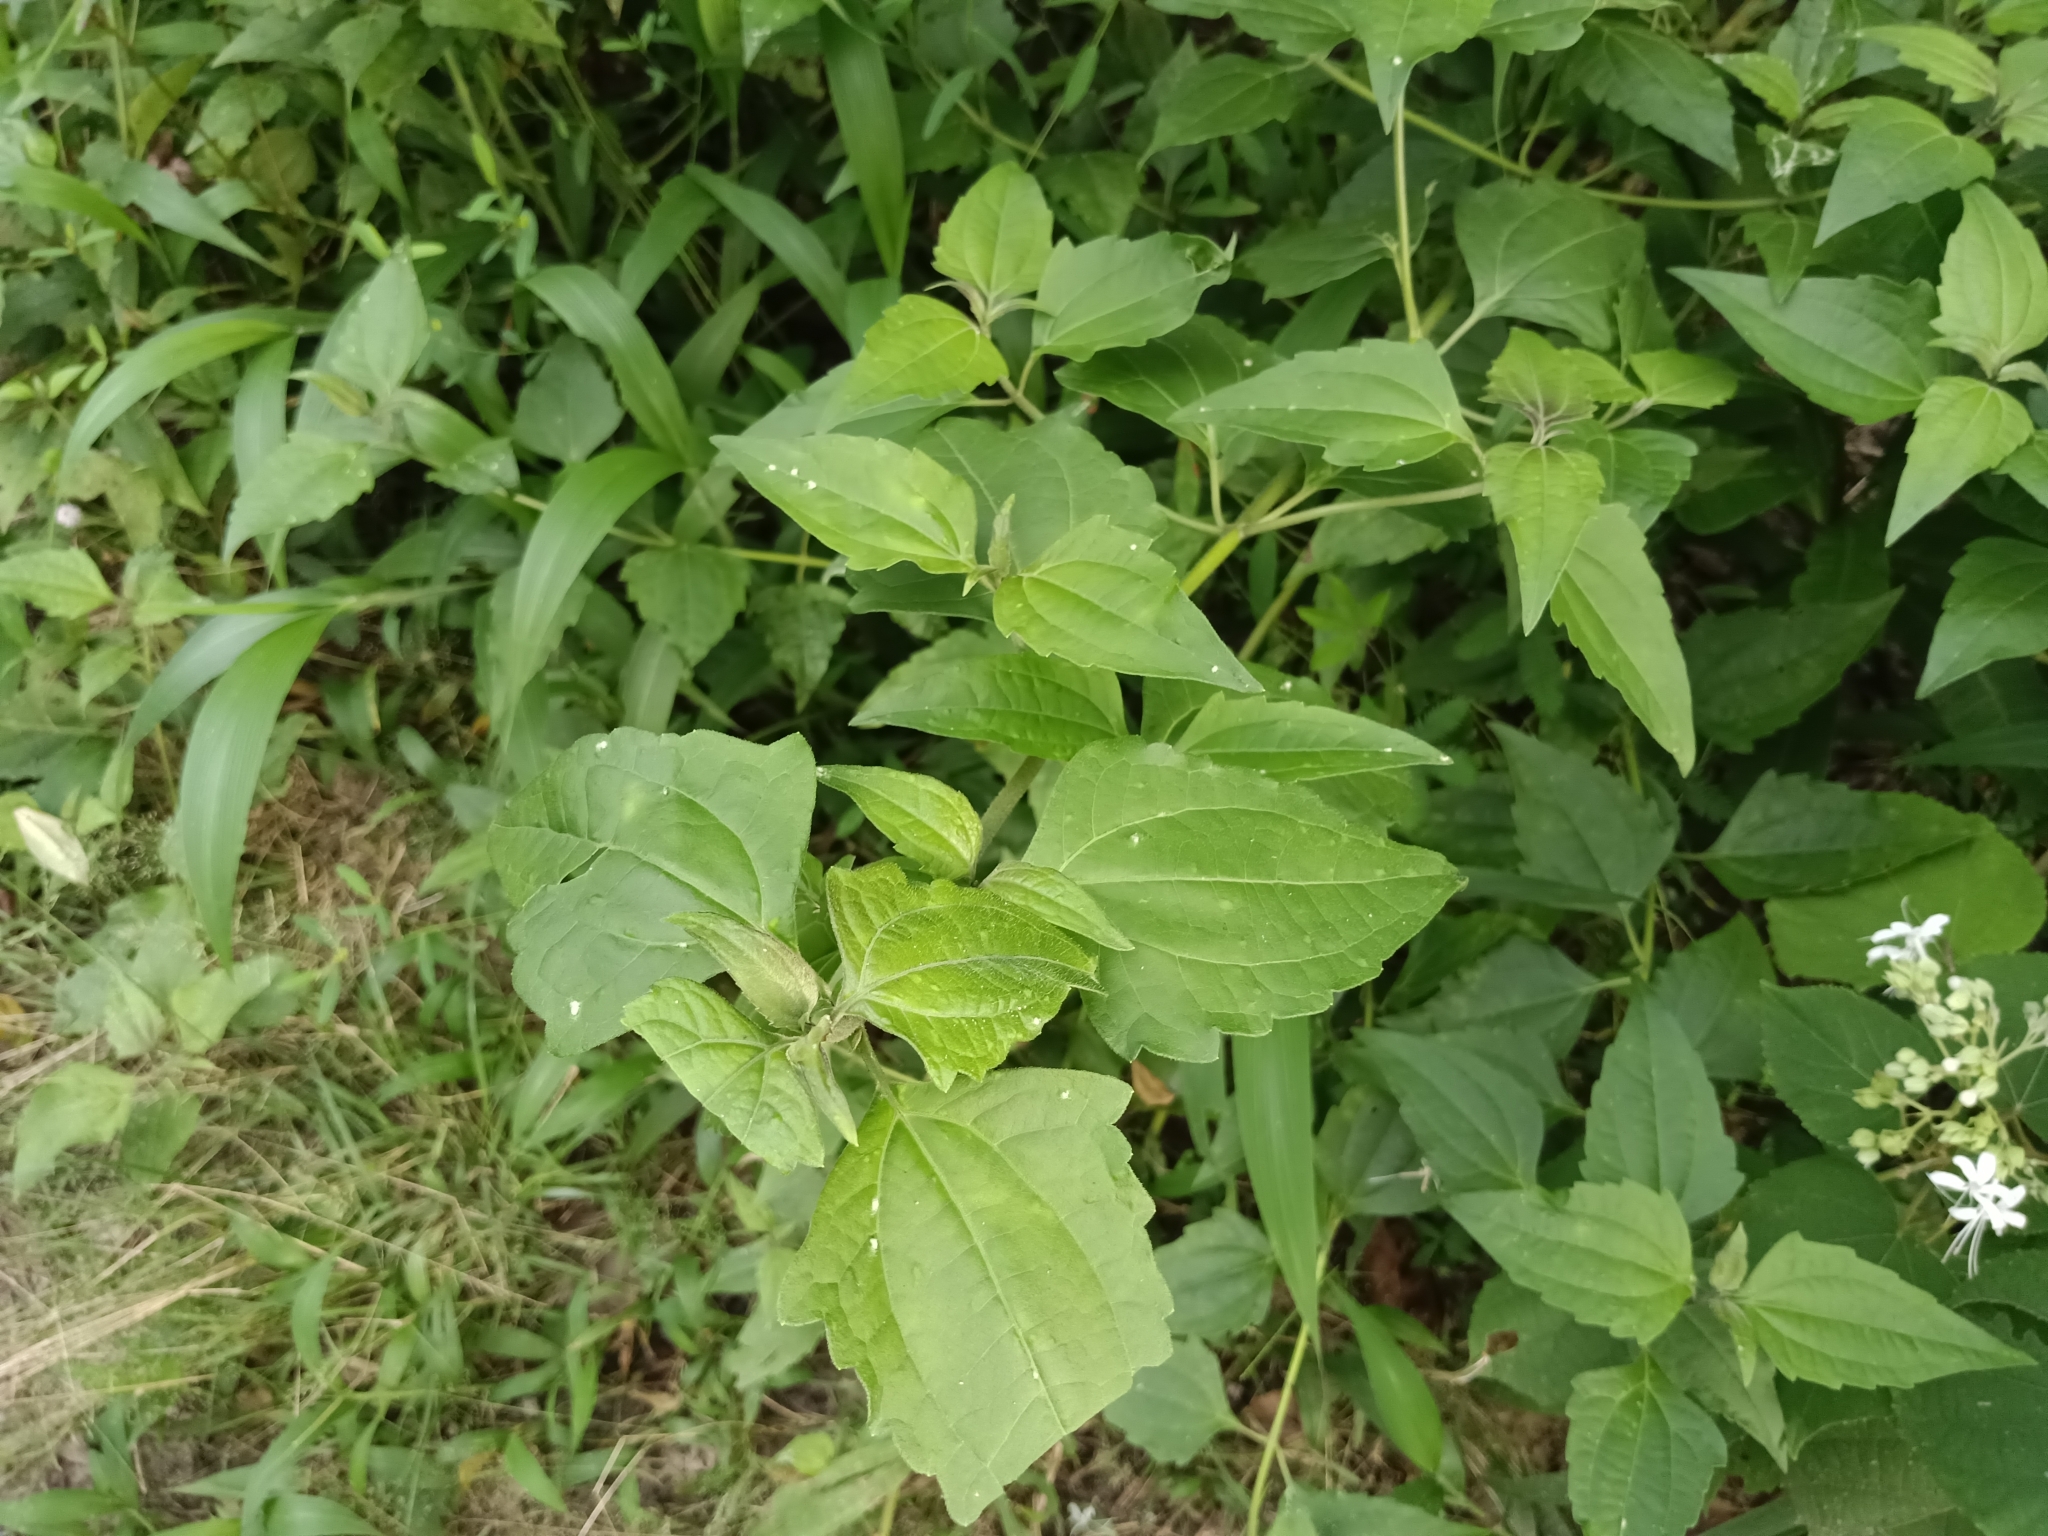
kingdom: Plantae
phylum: Tracheophyta
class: Magnoliopsida
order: Asterales
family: Asteraceae
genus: Chromolaena
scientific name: Chromolaena odorata
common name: Siamweed
